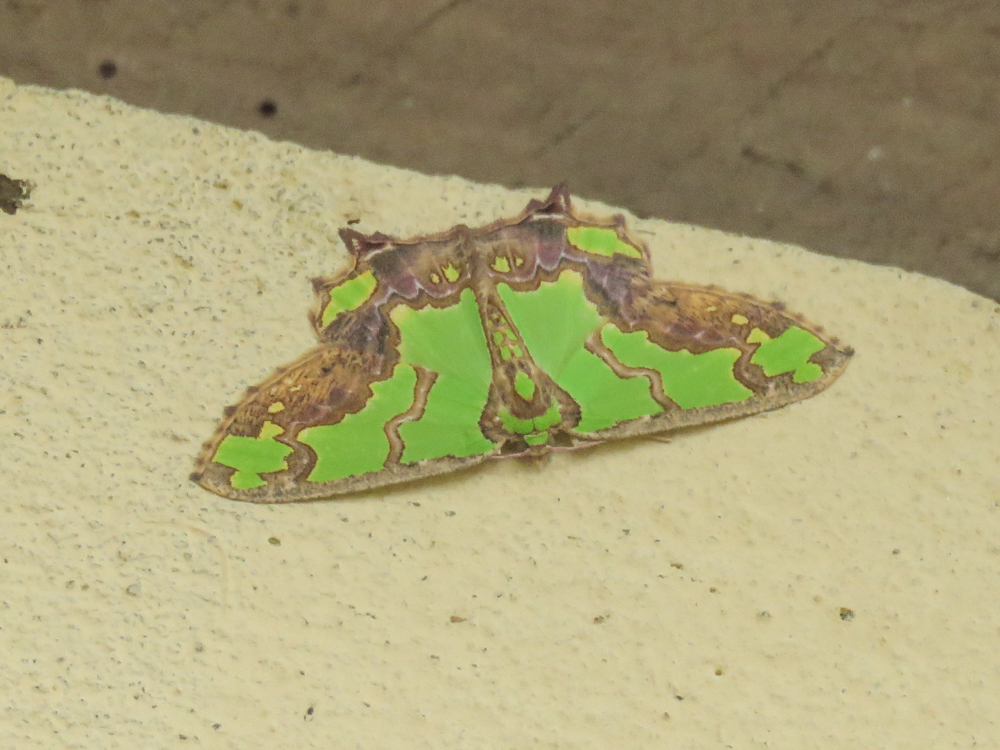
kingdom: Animalia
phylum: Arthropoda
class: Insecta
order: Lepidoptera
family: Geometridae
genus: Agathia
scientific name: Agathia hemithearia
